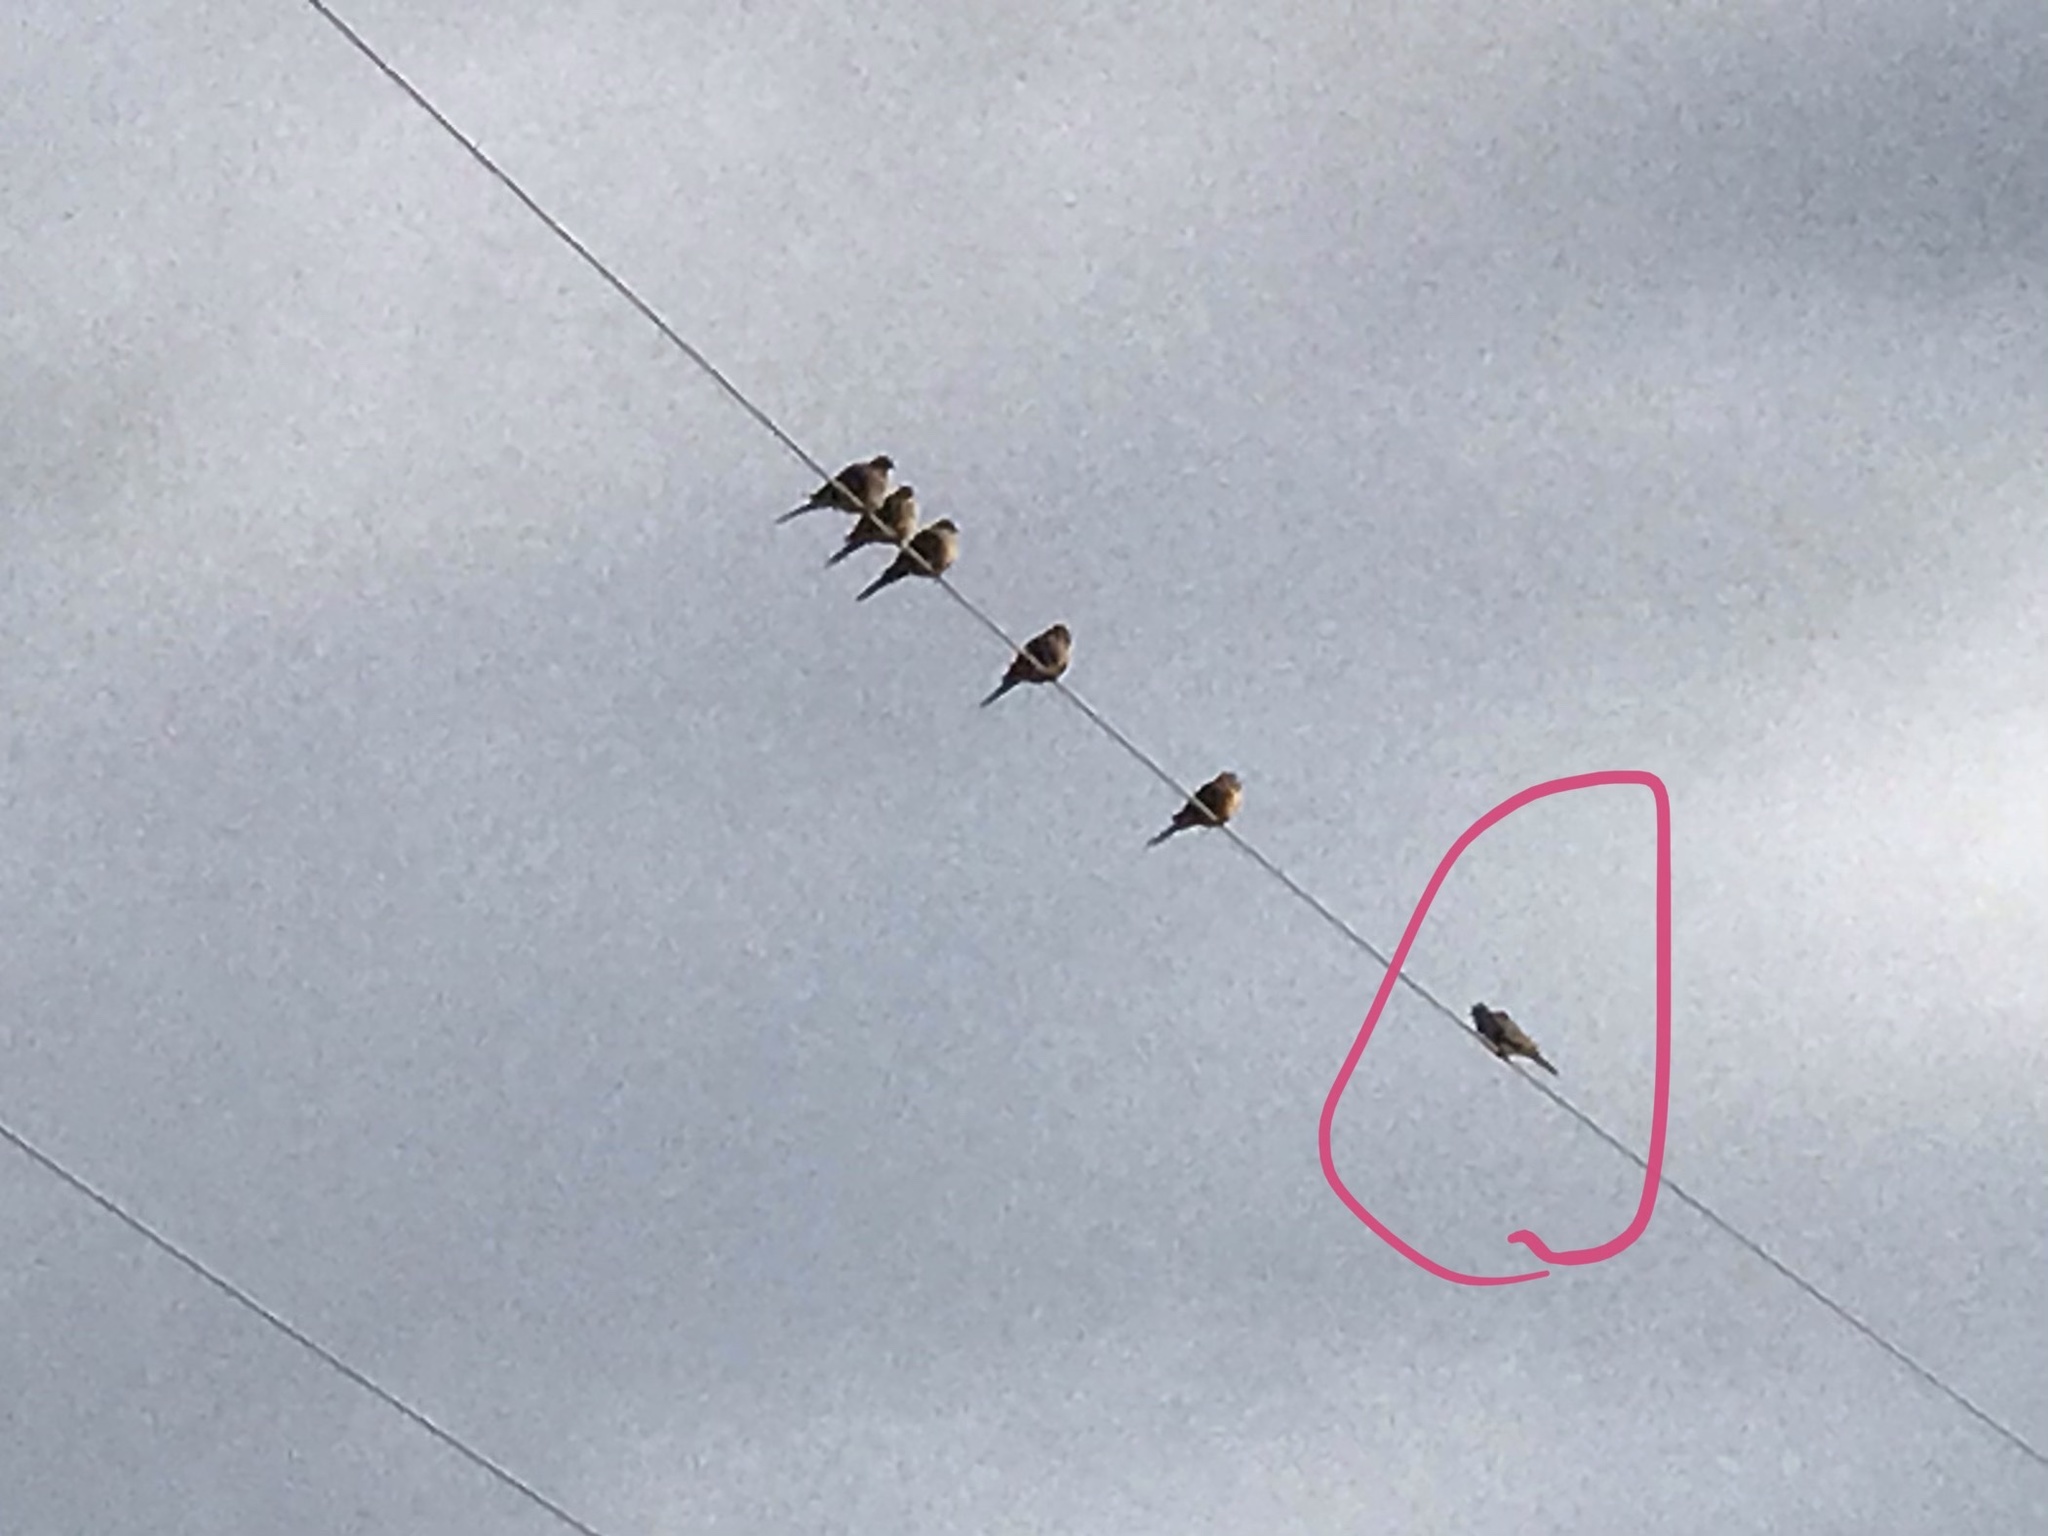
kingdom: Animalia
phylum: Chordata
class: Aves
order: Columbiformes
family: Columbidae
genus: Zenaida
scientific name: Zenaida macroura
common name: Mourning dove
